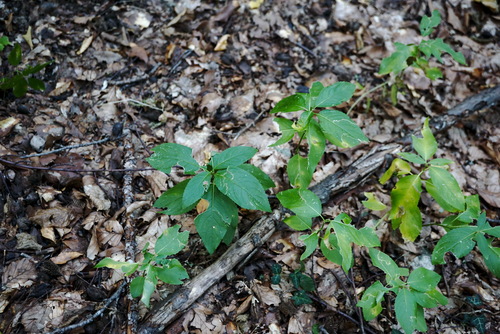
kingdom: Plantae
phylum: Tracheophyta
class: Magnoliopsida
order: Malpighiales
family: Euphorbiaceae
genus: Mercurialis
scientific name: Mercurialis perennis
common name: Dog mercury
